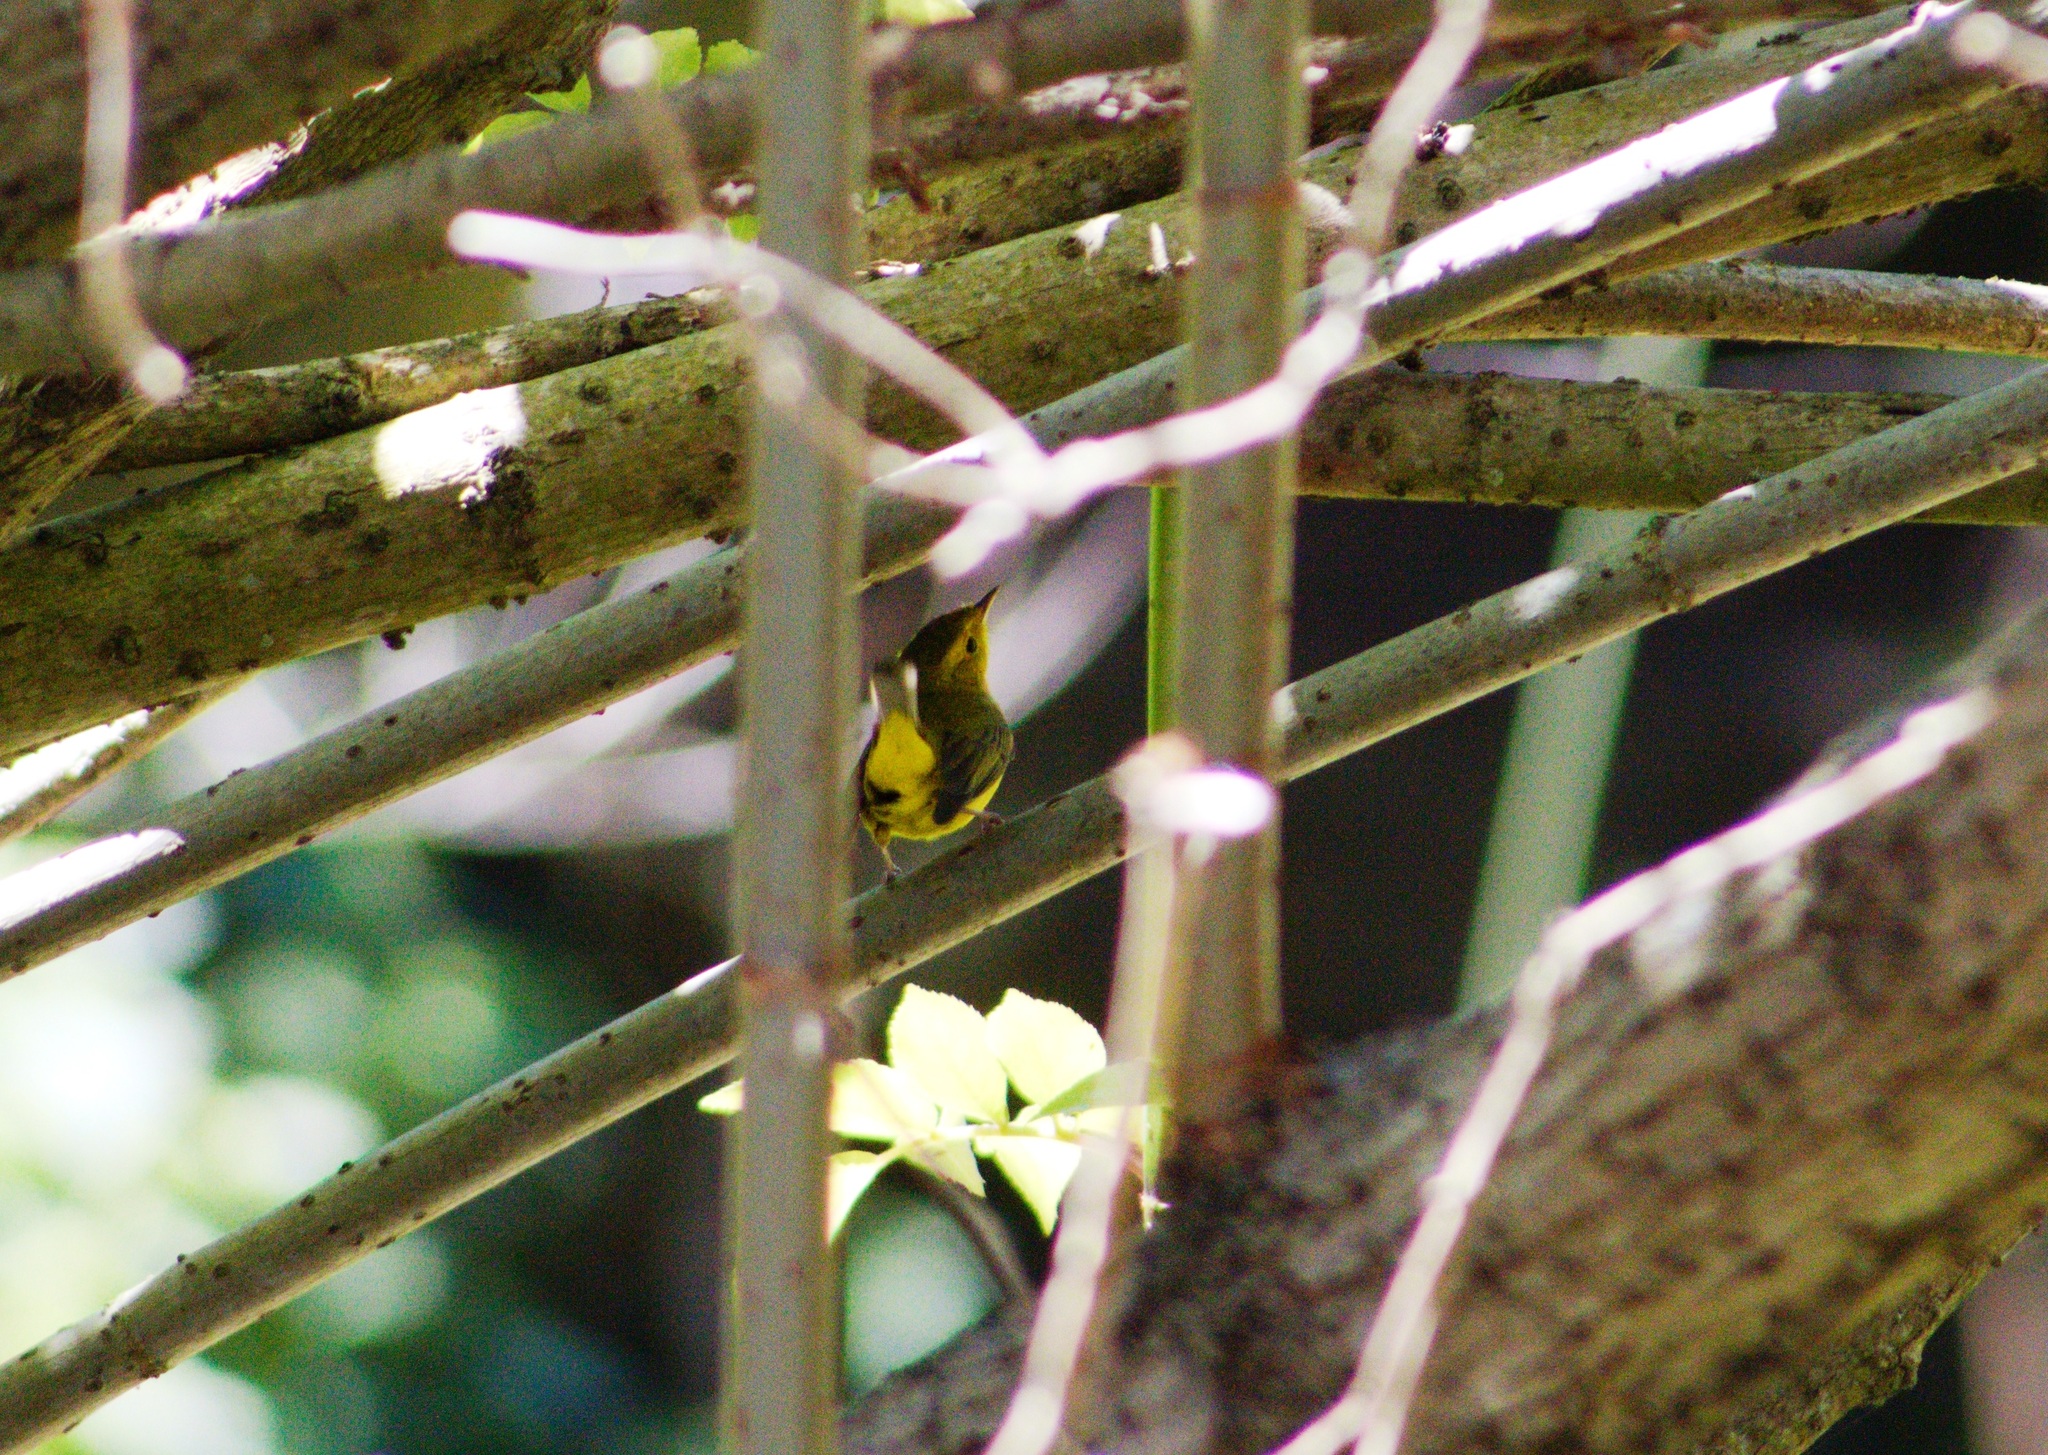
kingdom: Animalia
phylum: Chordata
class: Aves
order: Passeriformes
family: Parulidae
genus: Cardellina
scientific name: Cardellina pusilla
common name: Wilson's warbler
